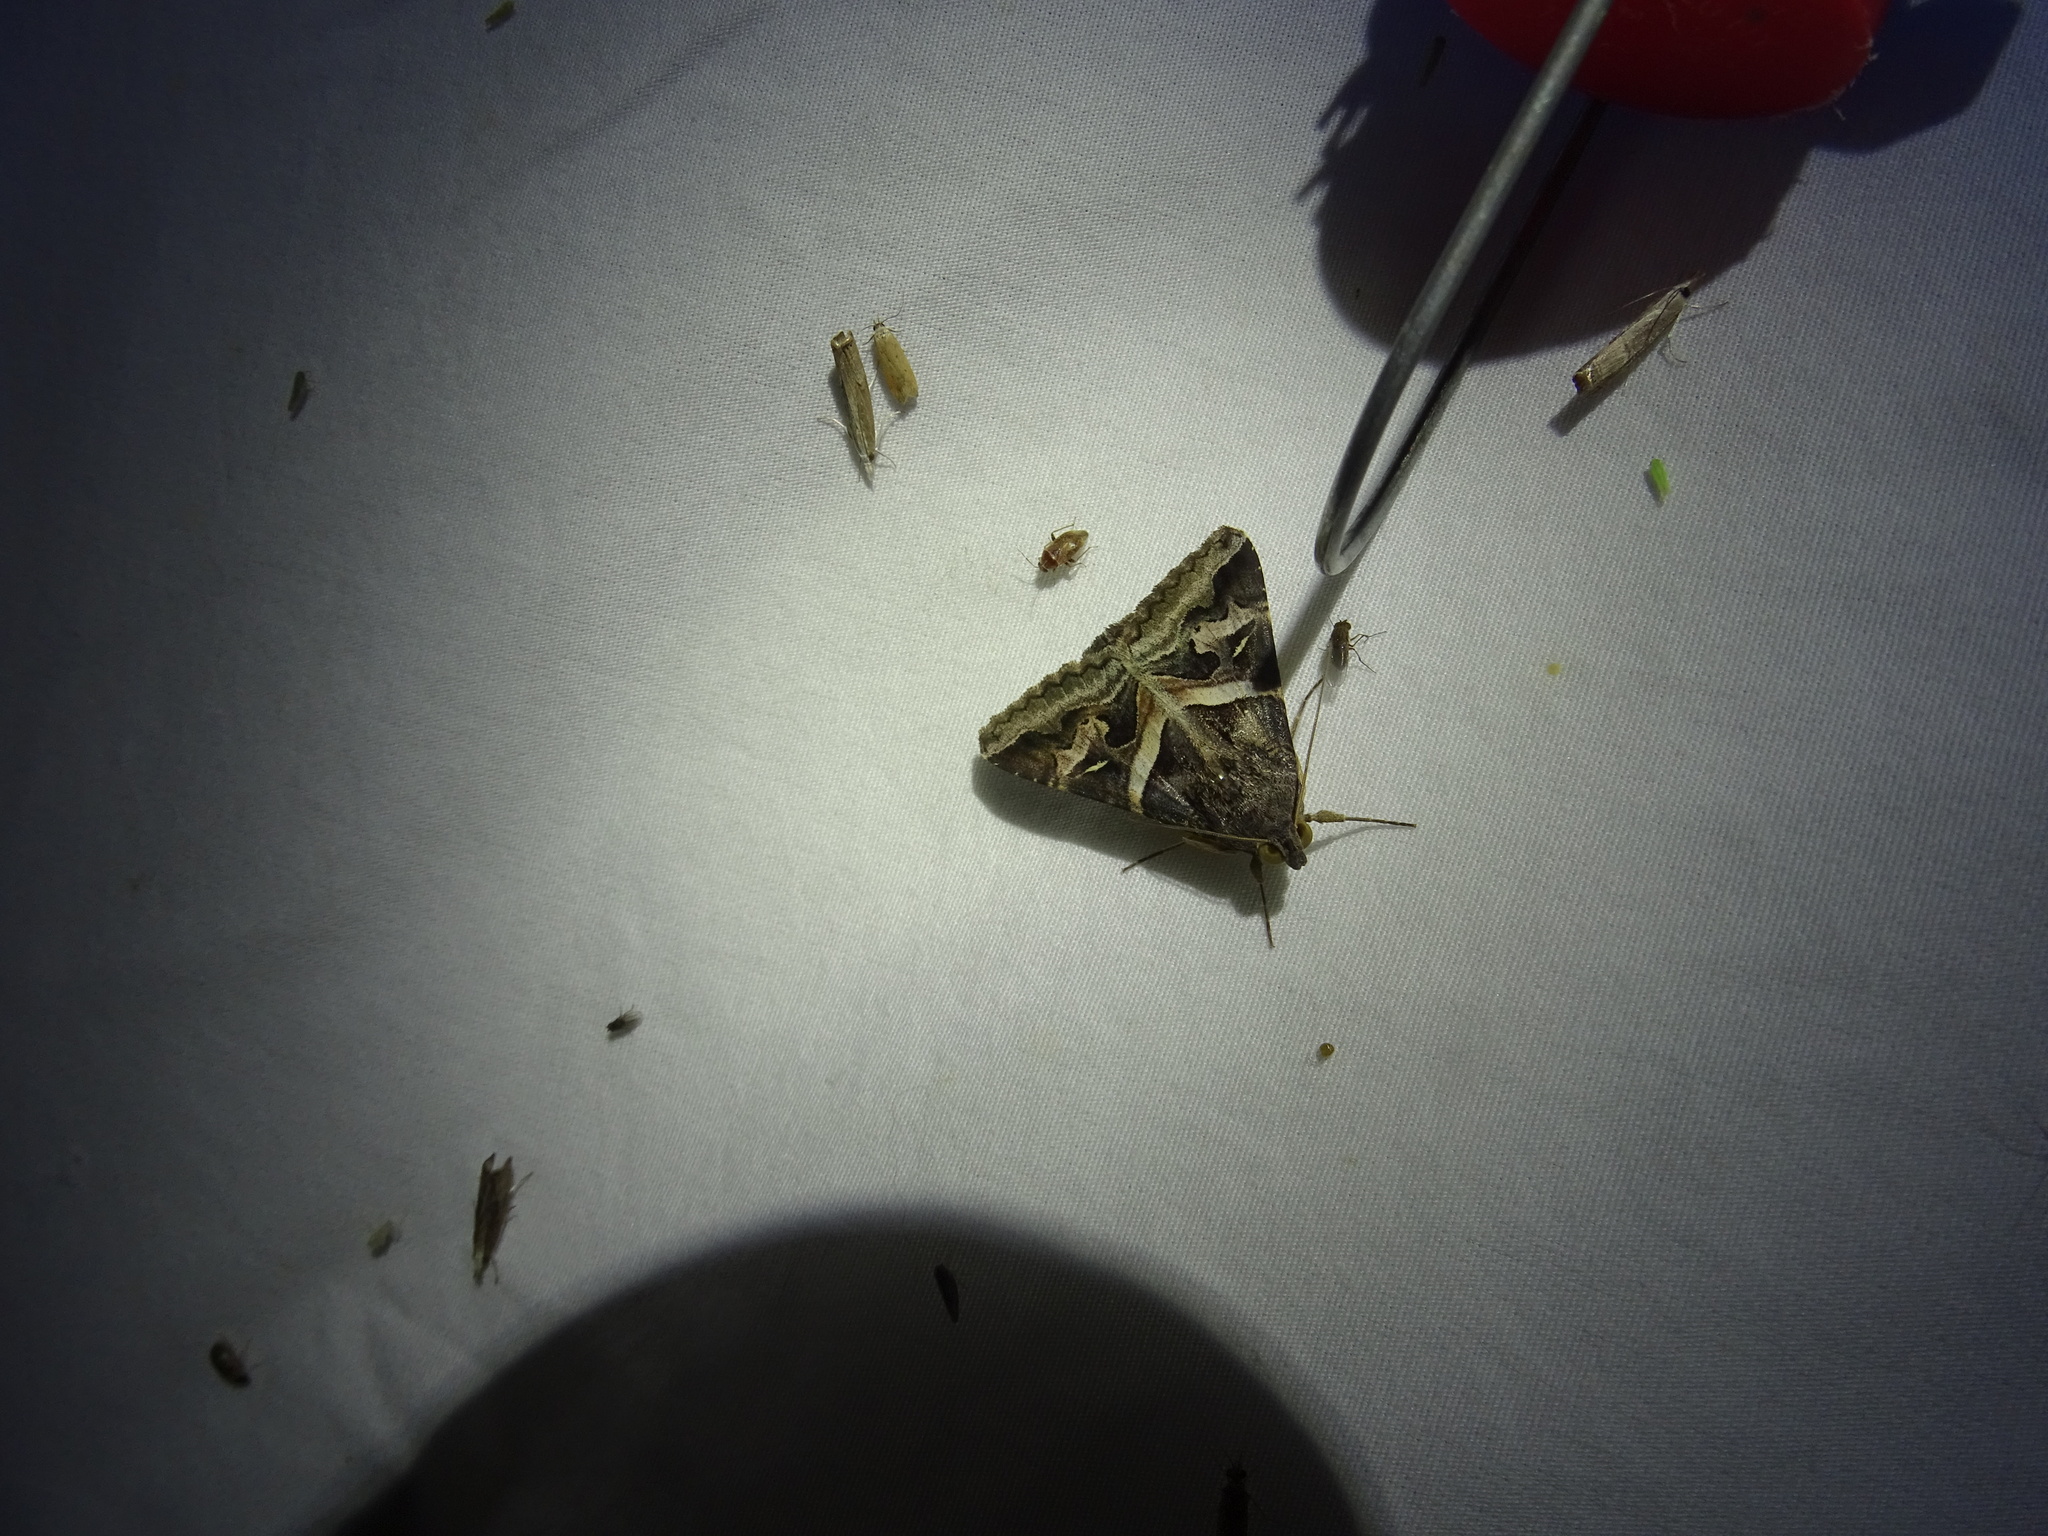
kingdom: Animalia
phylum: Arthropoda
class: Insecta
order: Lepidoptera
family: Erebidae
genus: Melipotis
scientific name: Melipotis indomita
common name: Moth
